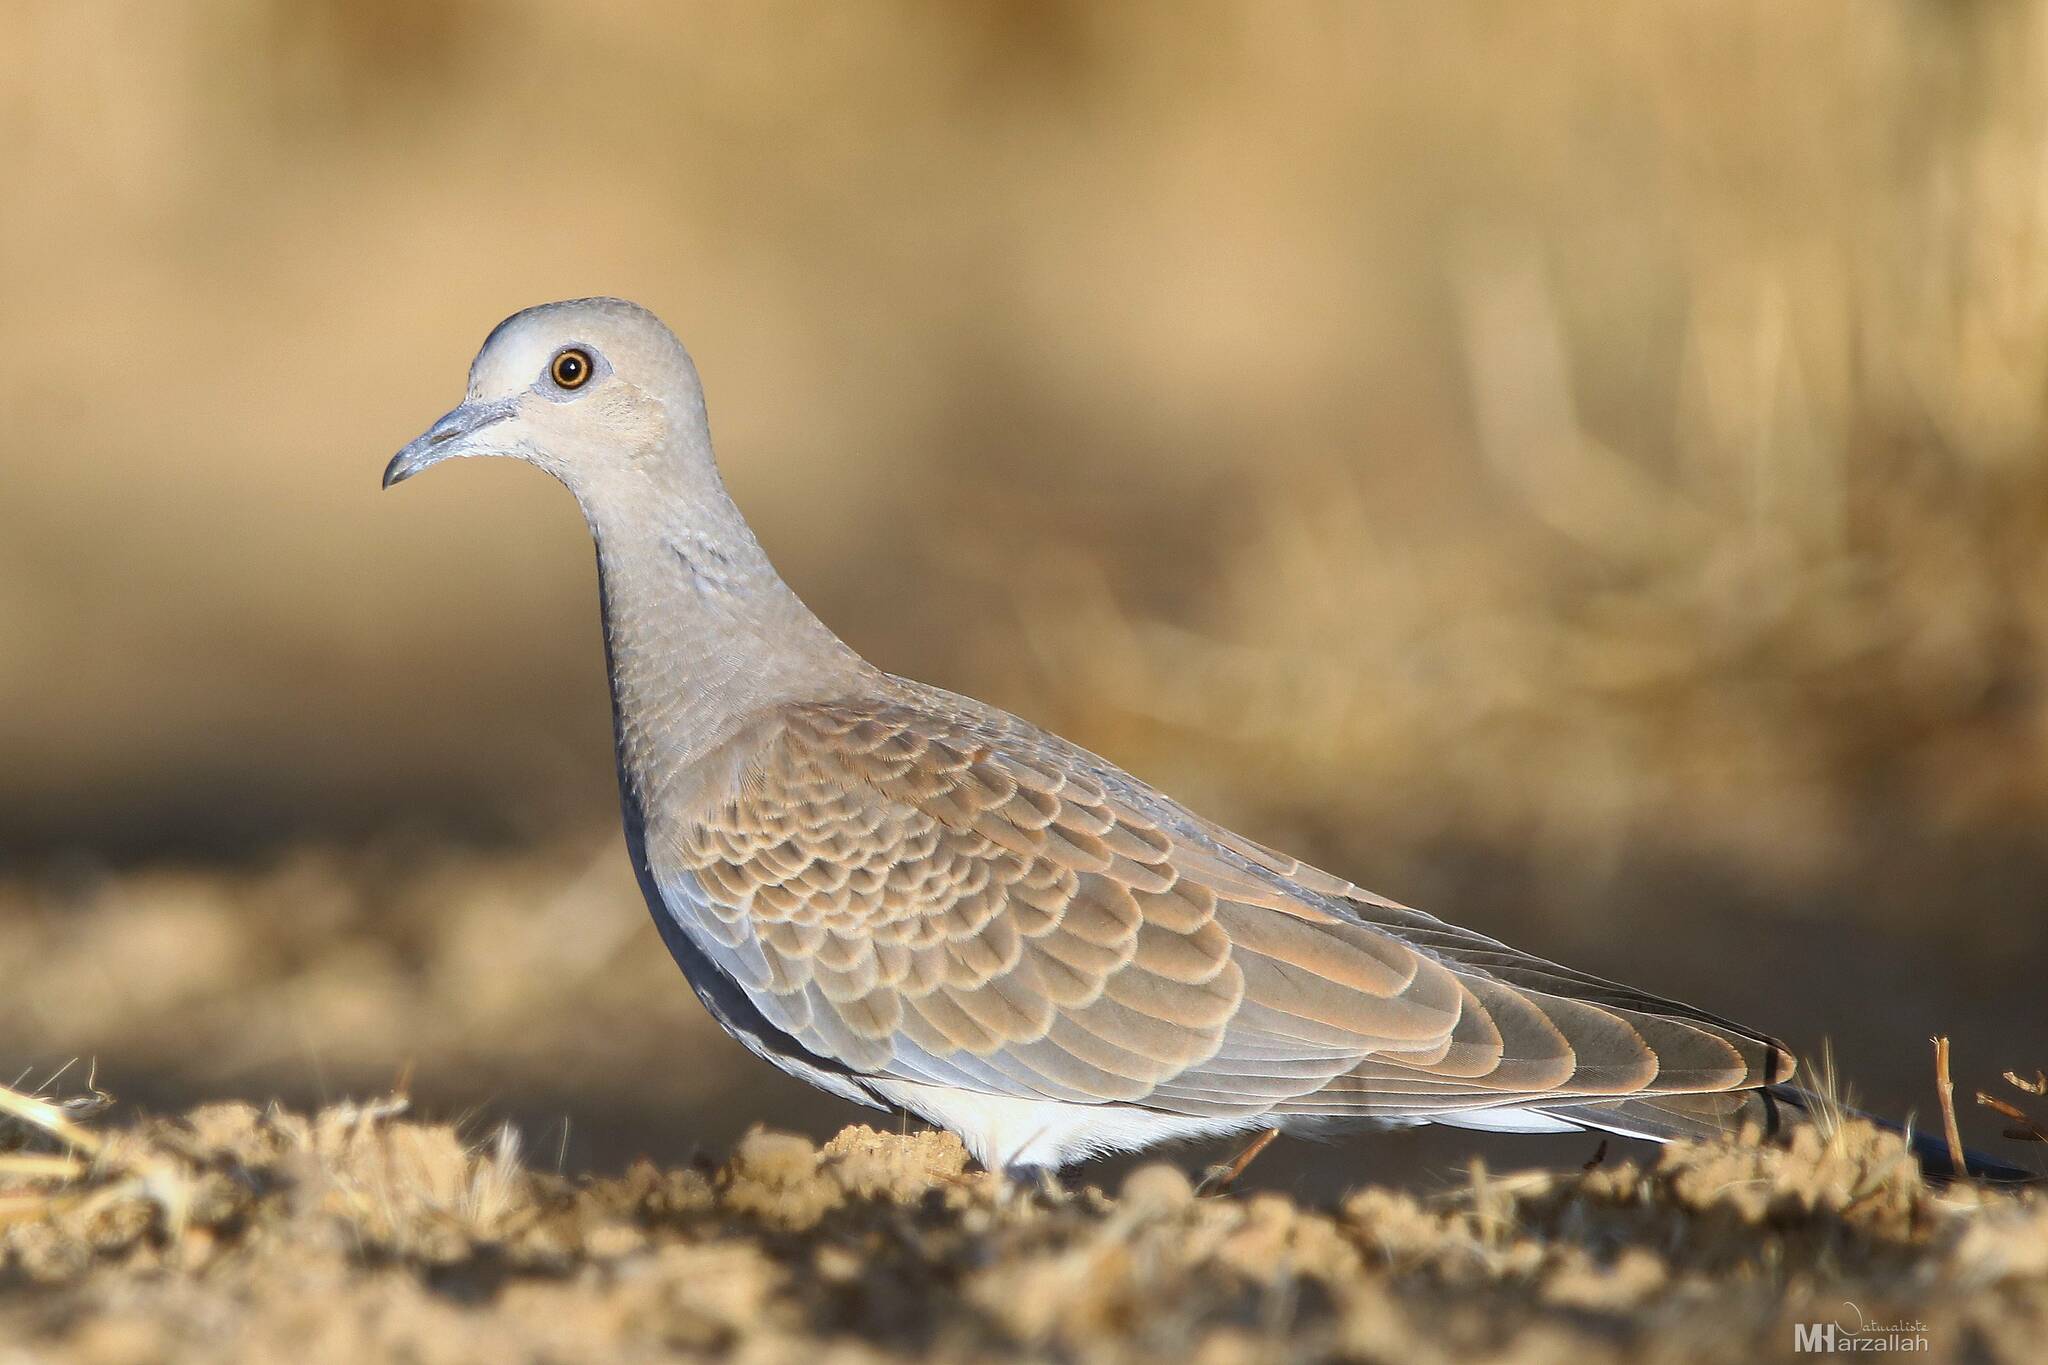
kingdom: Animalia
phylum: Chordata
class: Aves
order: Columbiformes
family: Columbidae
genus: Streptopelia
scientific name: Streptopelia turtur
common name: European turtle dove
